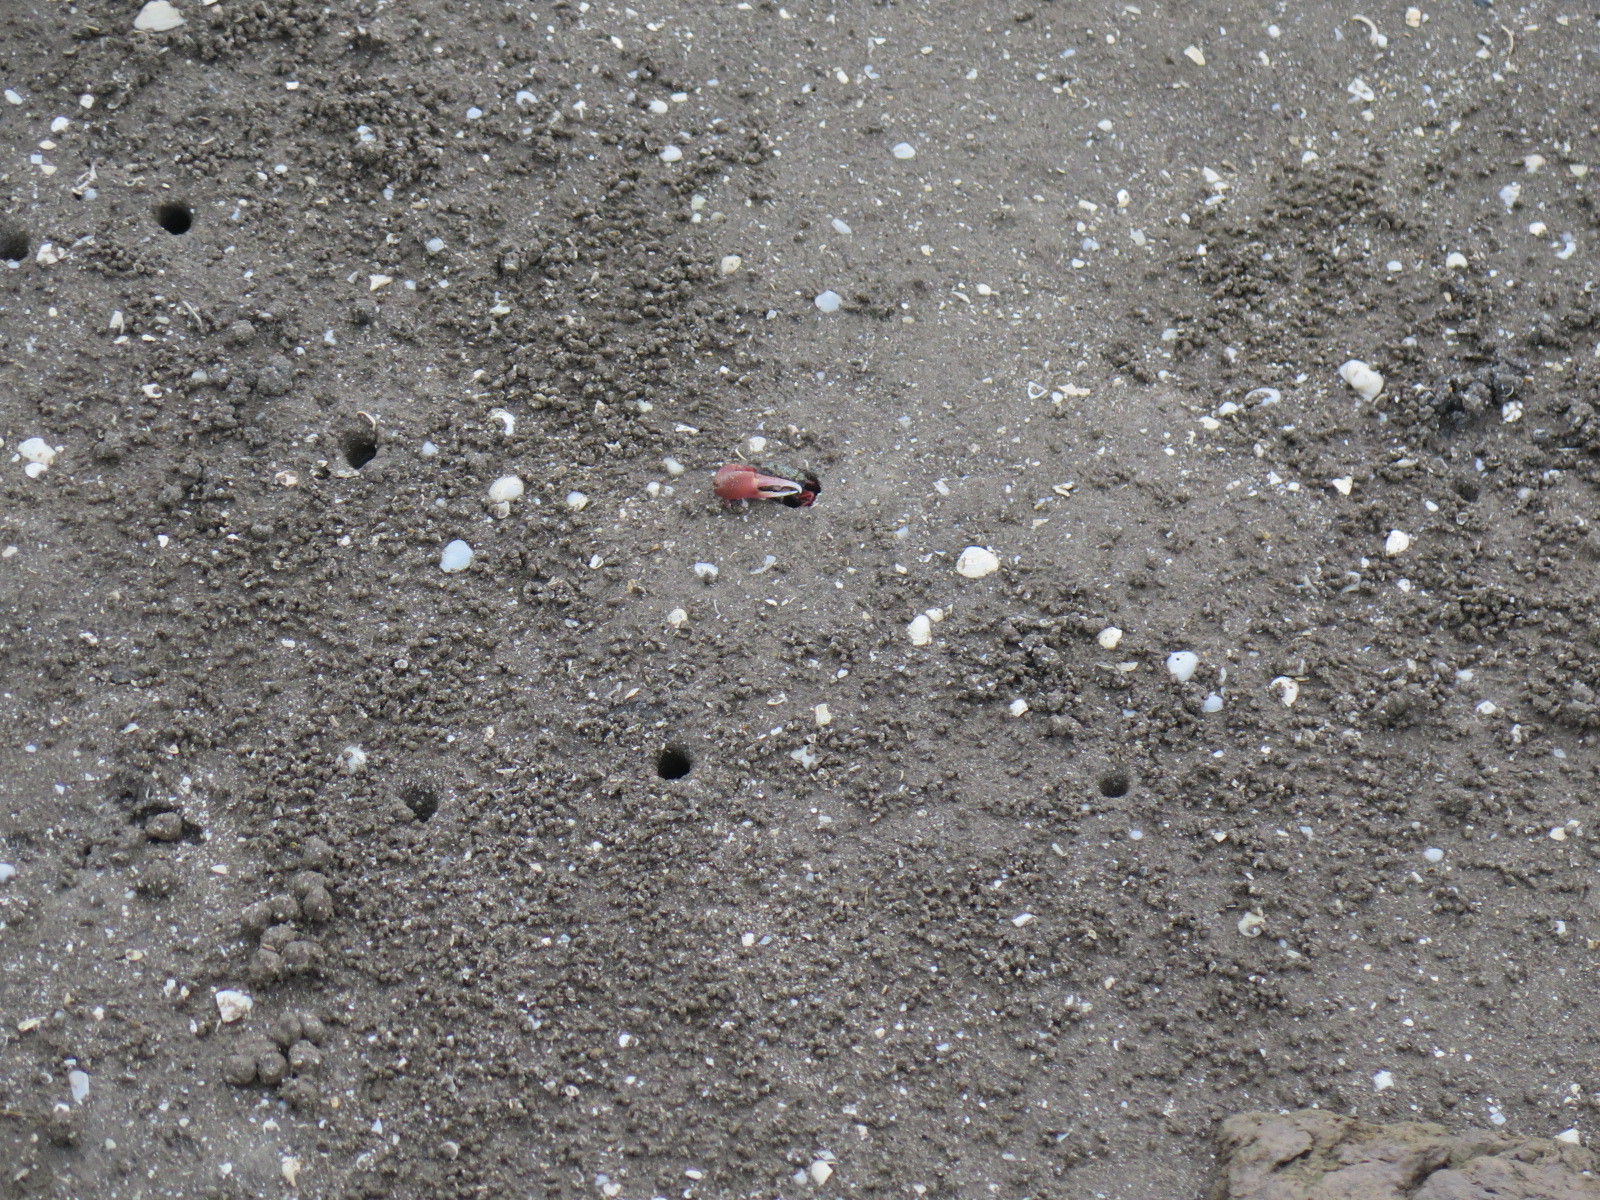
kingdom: Animalia
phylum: Arthropoda
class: Malacostraca
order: Decapoda
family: Ocypodidae
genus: Leptuca
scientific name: Leptuca uruguayensis
